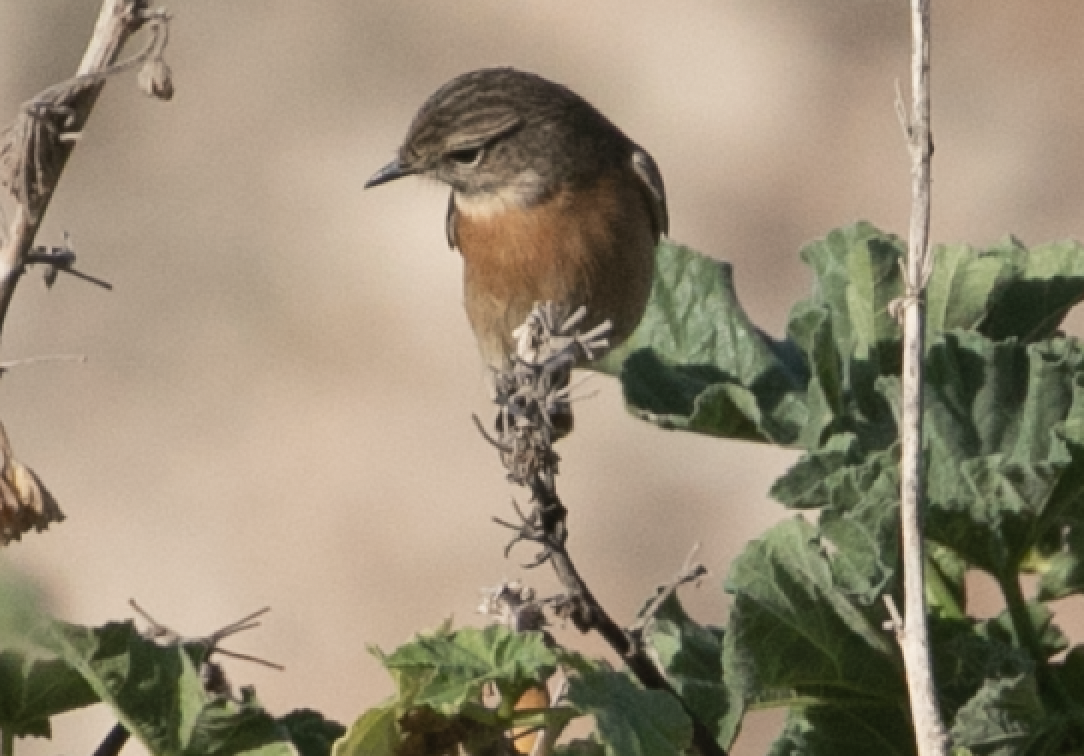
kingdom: Animalia
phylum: Chordata
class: Aves
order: Passeriformes
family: Muscicapidae
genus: Saxicola
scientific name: Saxicola rubicola
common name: European stonechat
